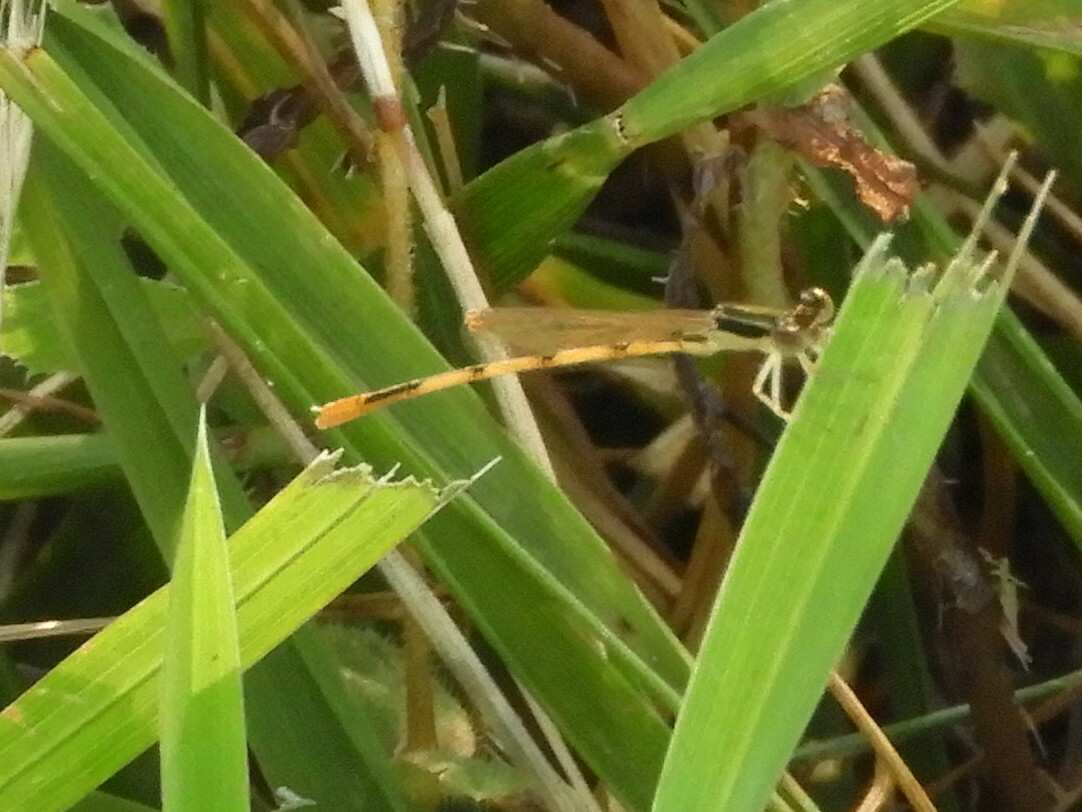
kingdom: Animalia
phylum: Arthropoda
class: Insecta
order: Odonata
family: Coenagrionidae
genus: Ischnura
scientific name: Ischnura hastata
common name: Citrine forktail
